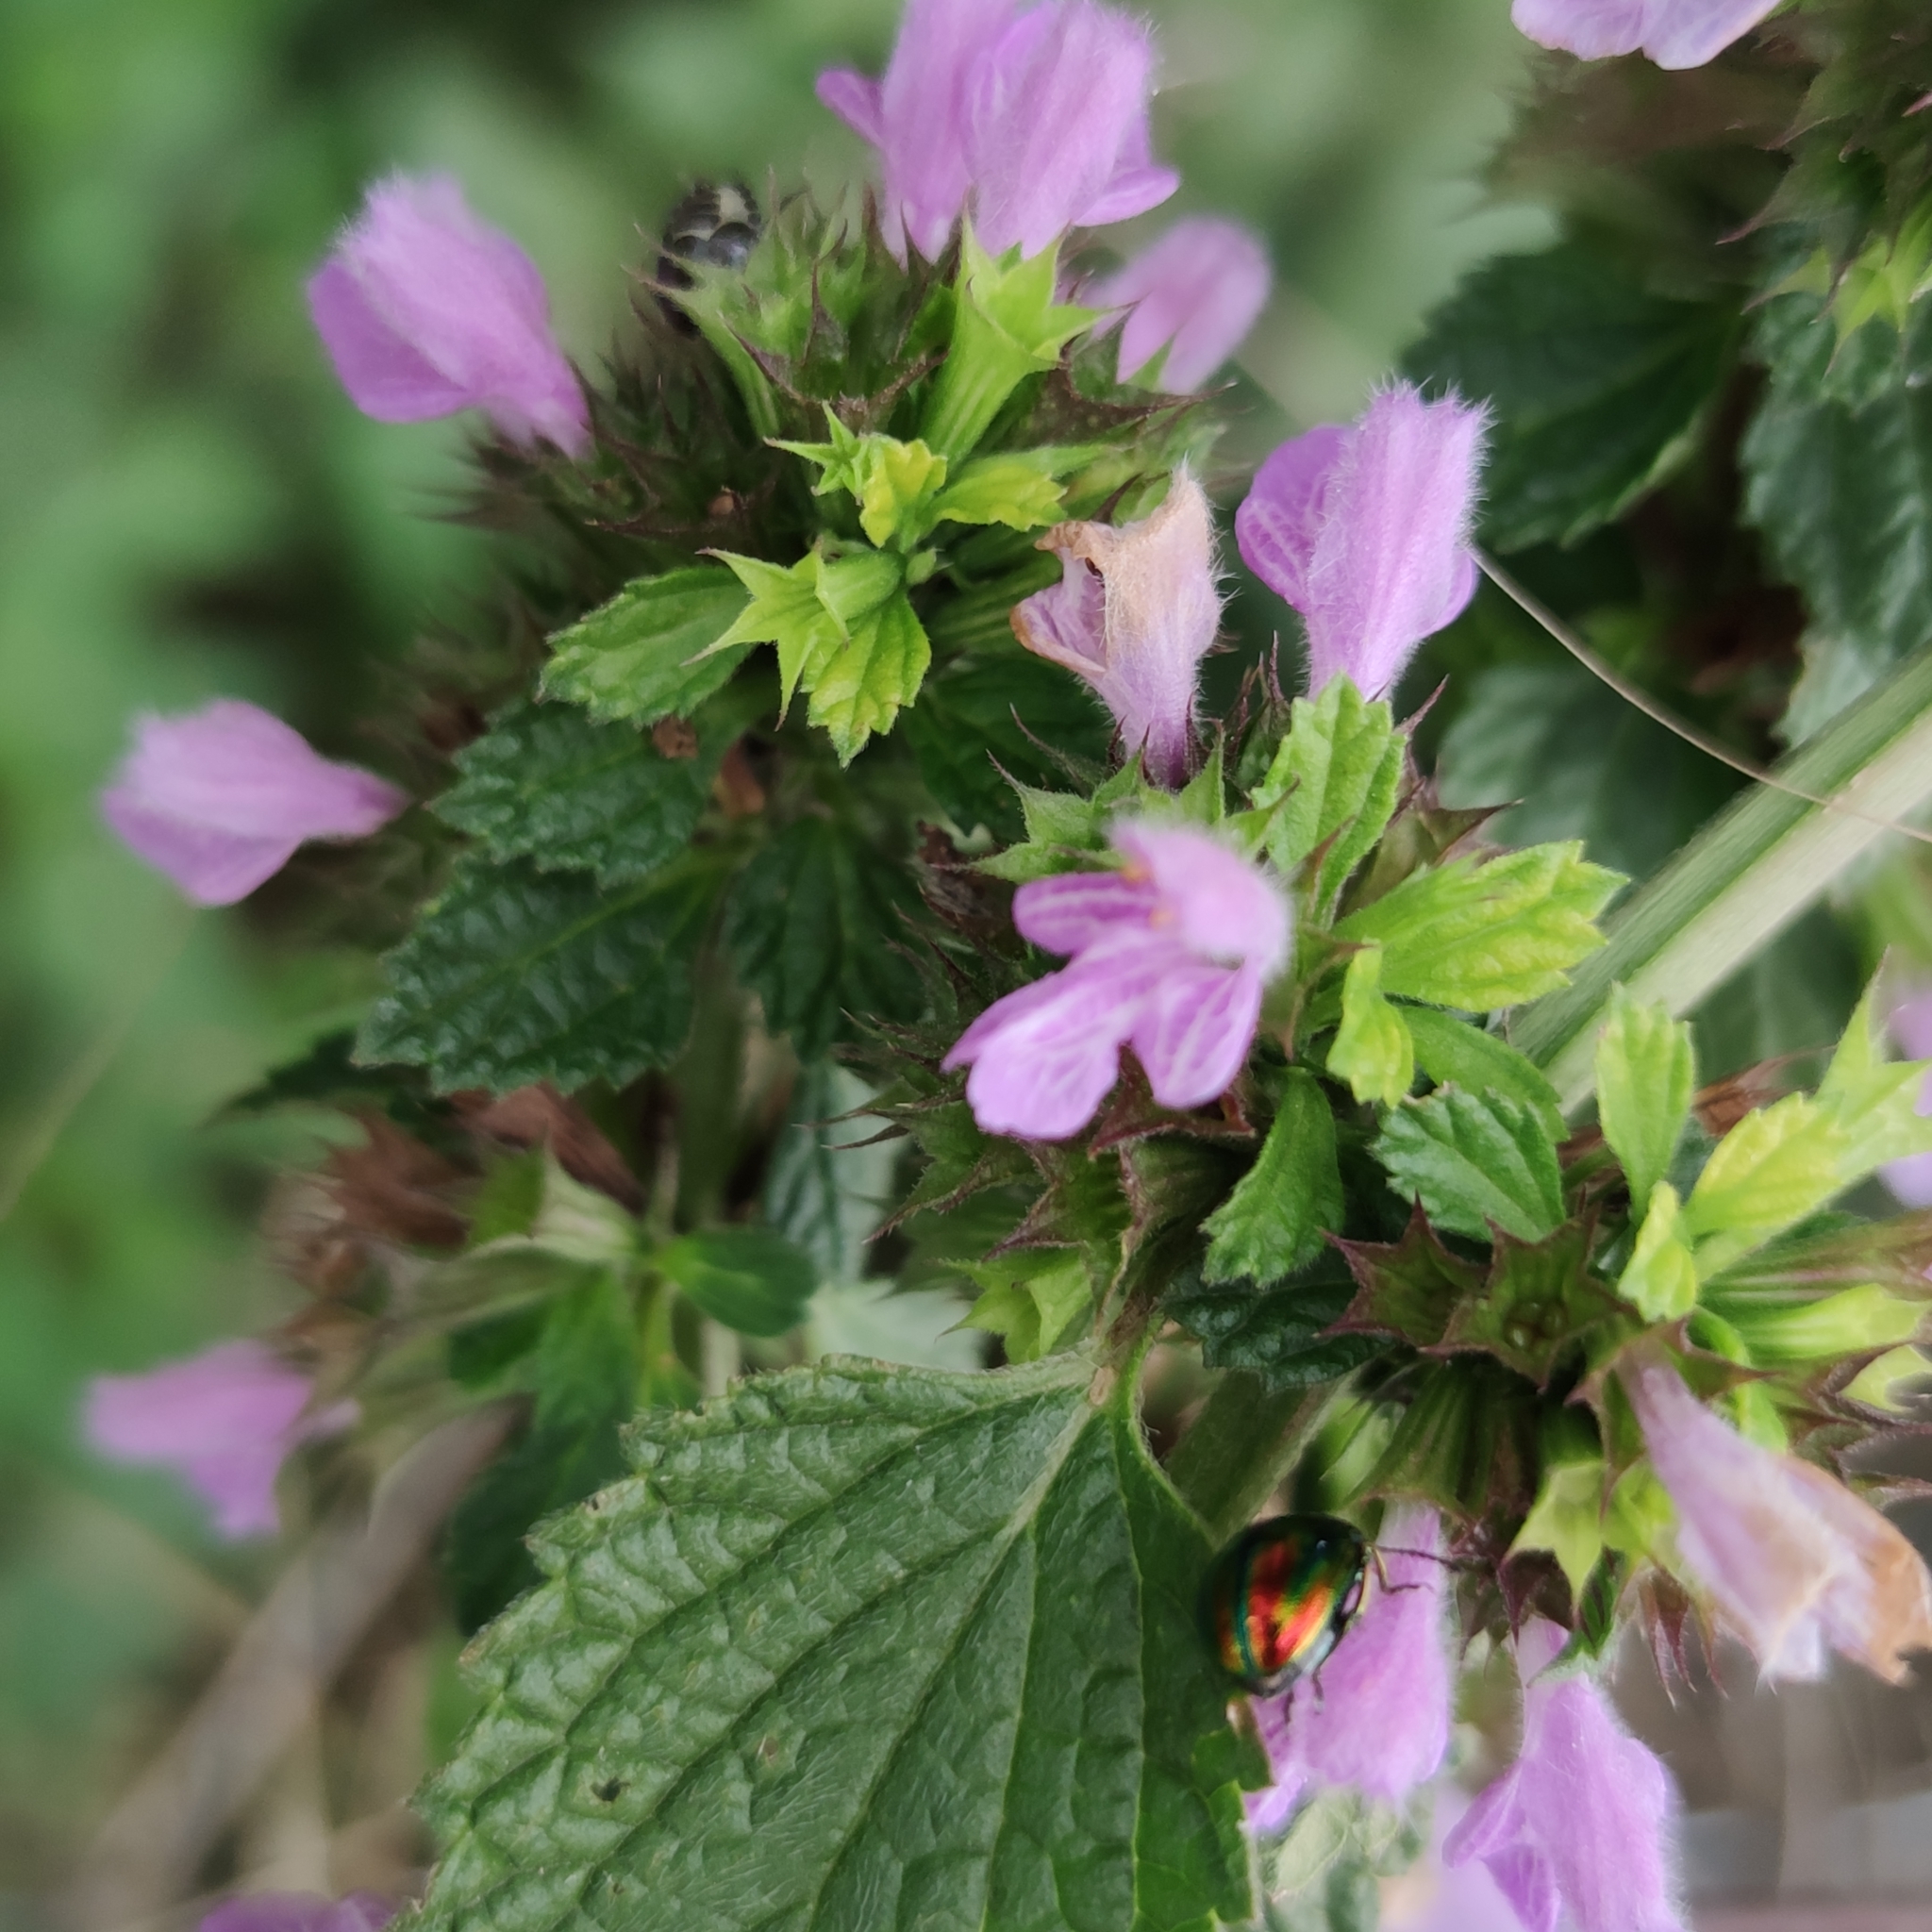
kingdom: Animalia
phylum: Arthropoda
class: Insecta
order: Coleoptera
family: Chrysomelidae
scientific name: Chrysomelidae
